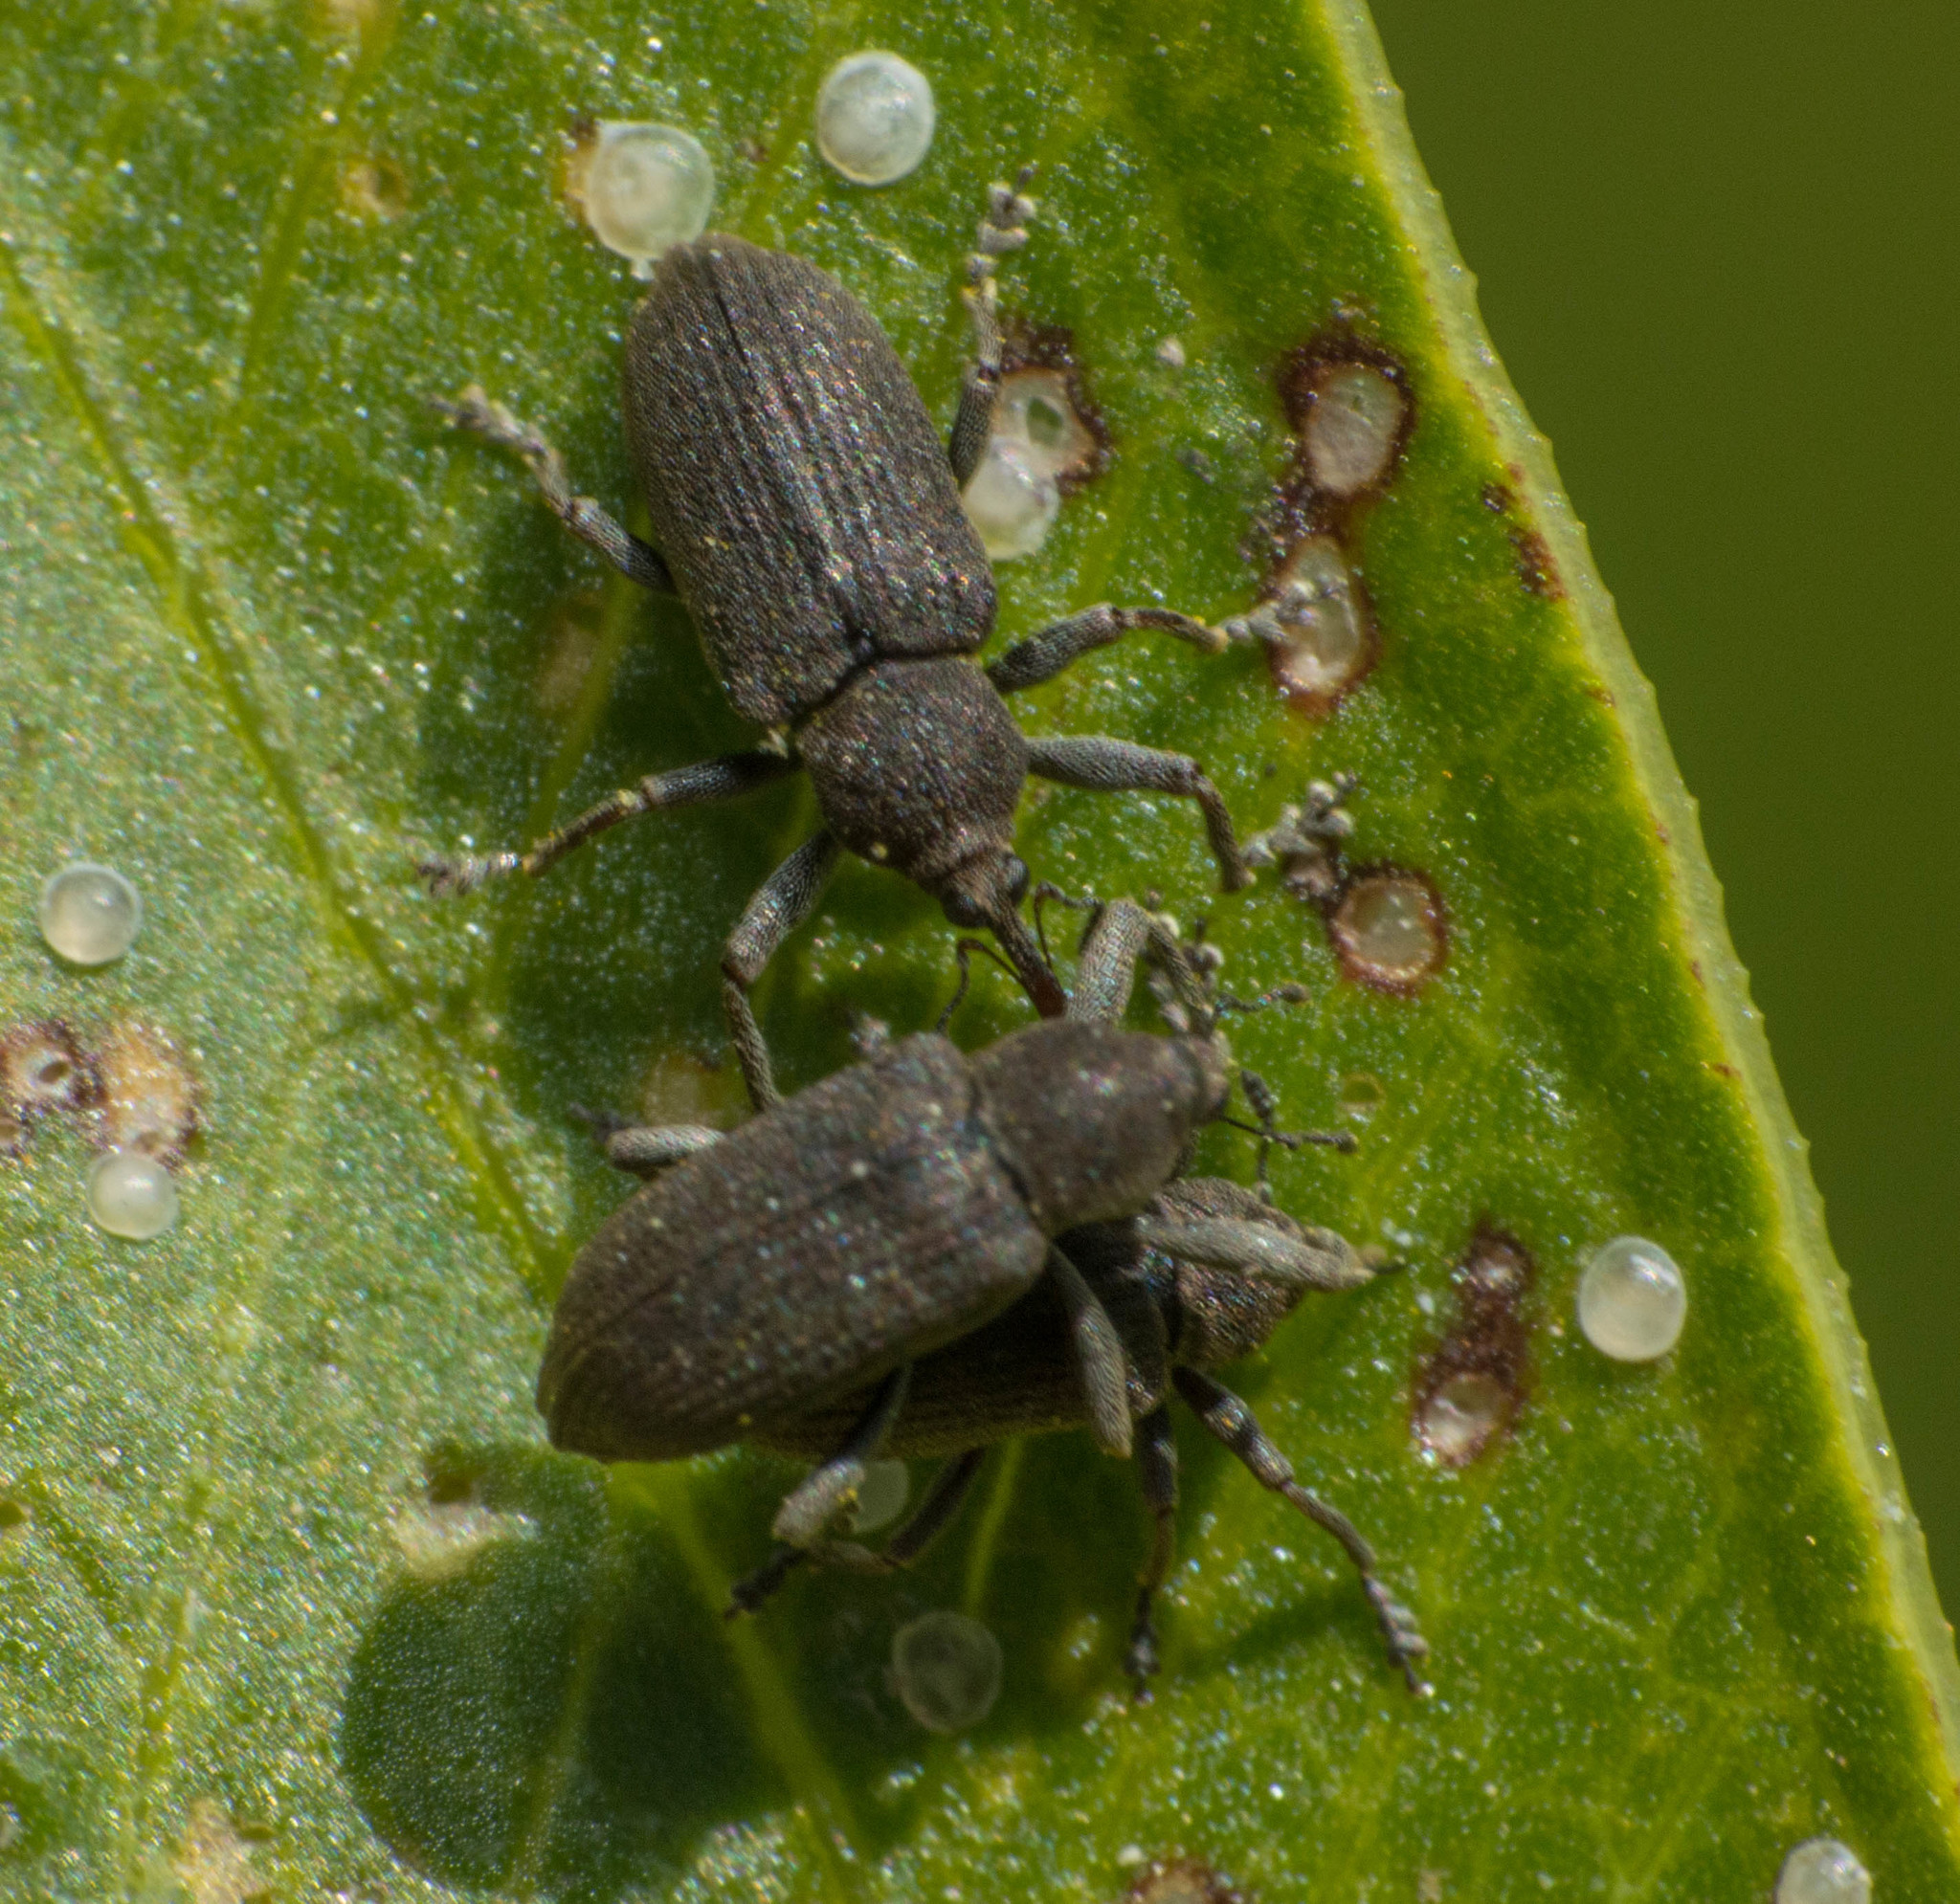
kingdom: Animalia
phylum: Arthropoda
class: Insecta
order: Coleoptera
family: Brachyceridae
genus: Hypselus
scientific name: Hypselus ater
